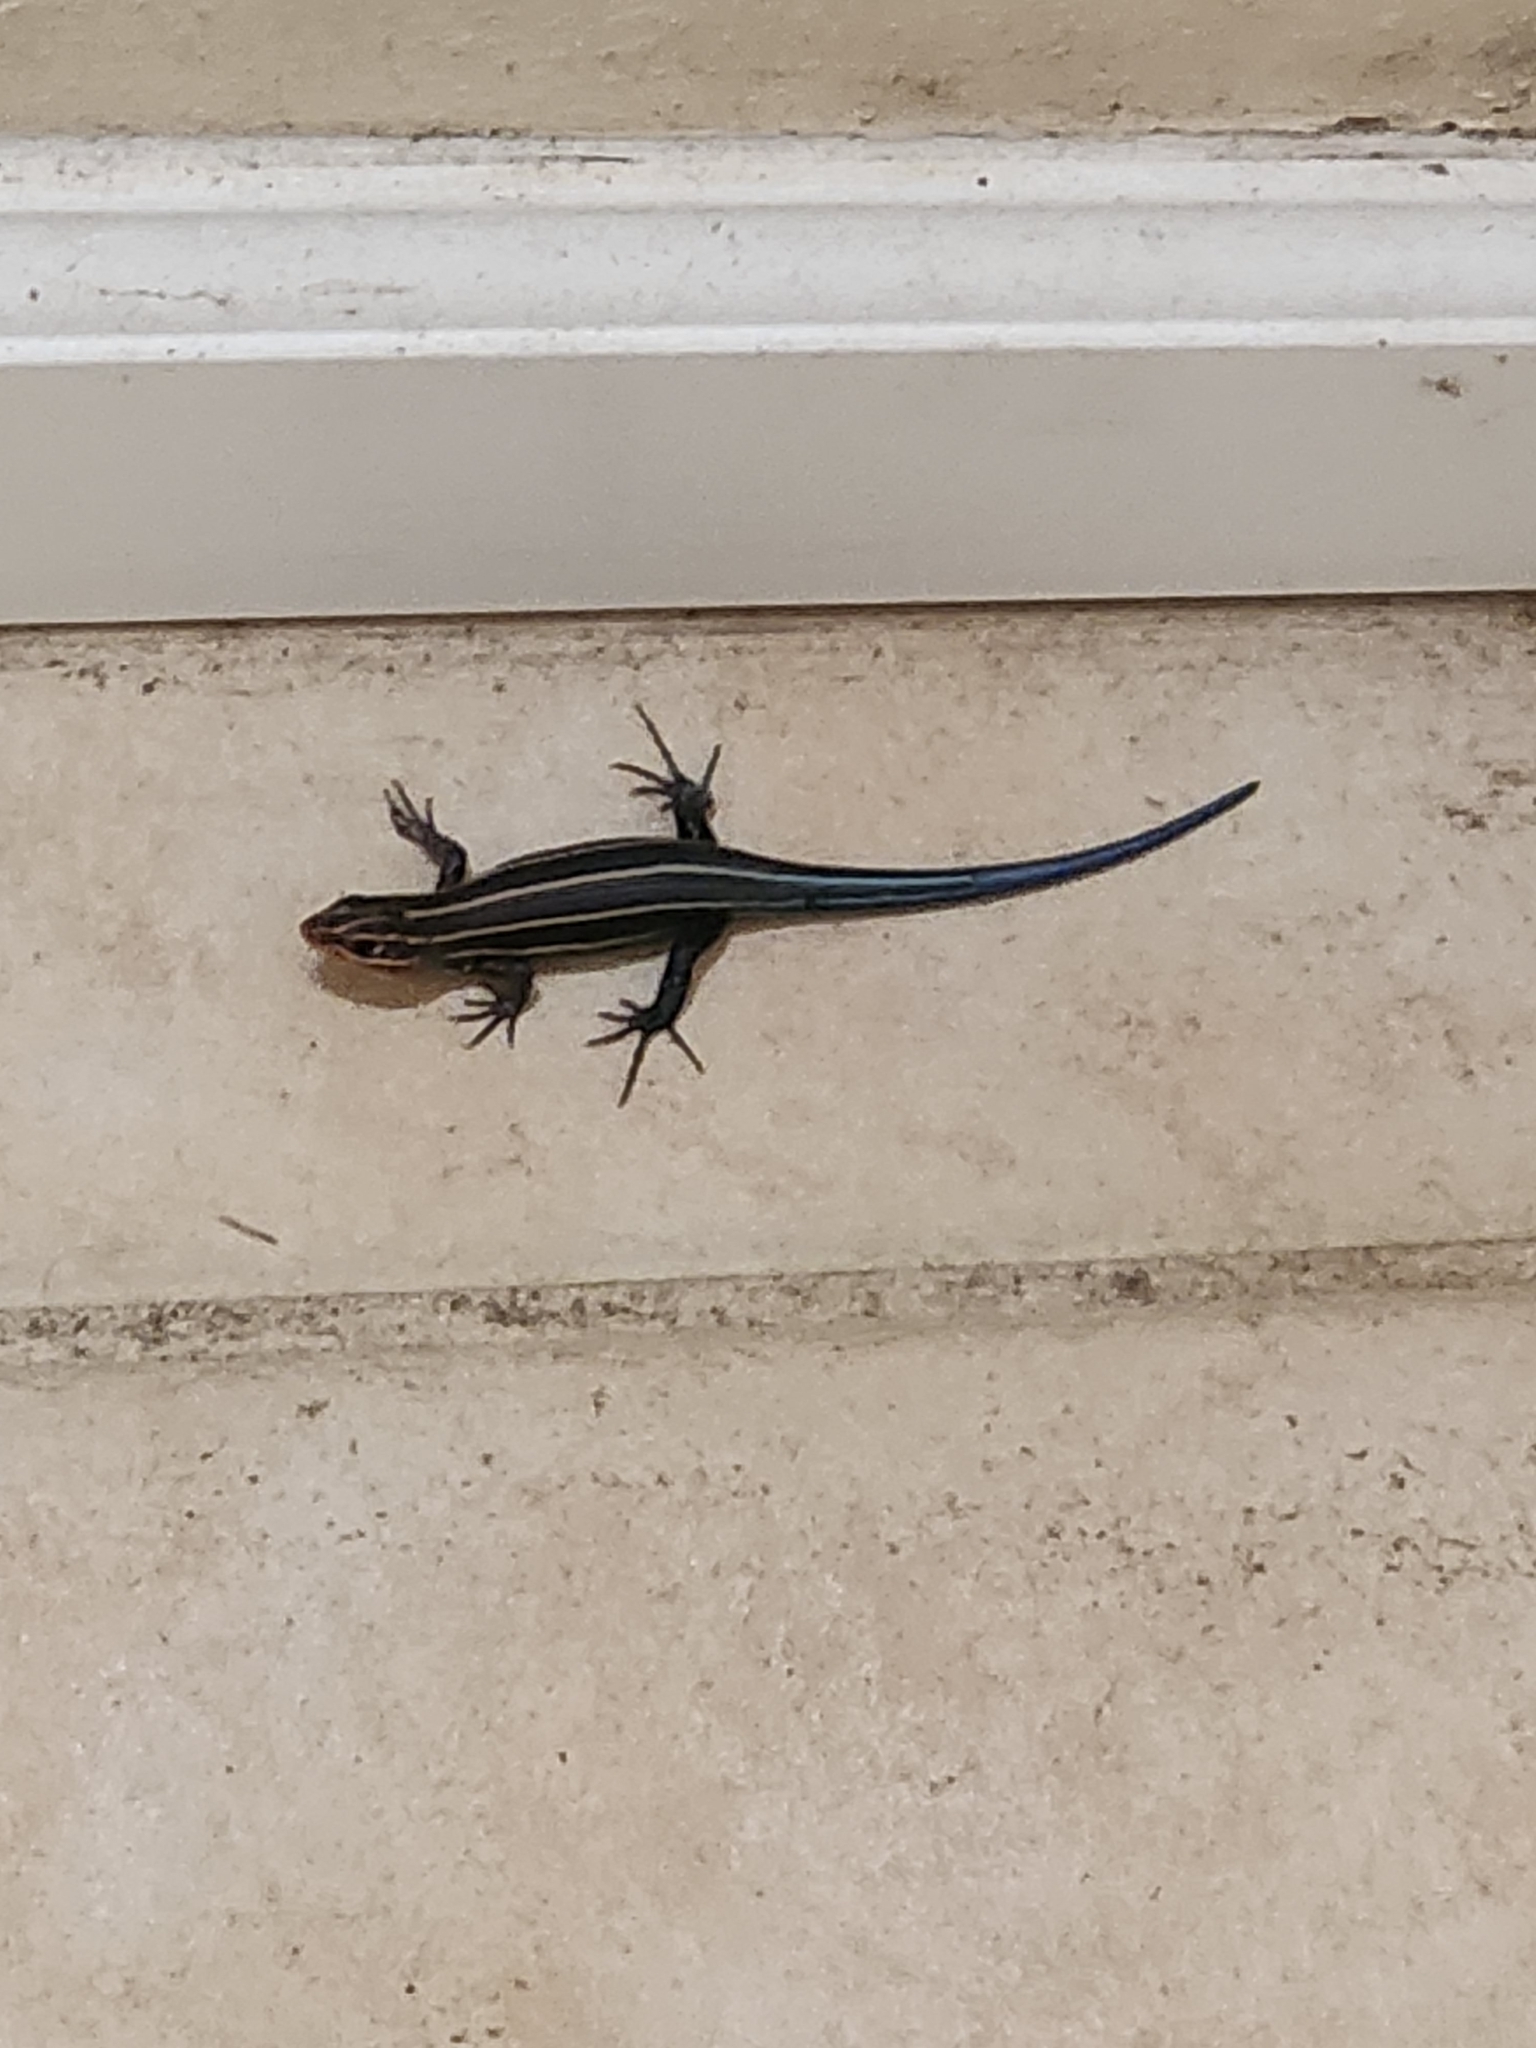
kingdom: Animalia
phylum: Chordata
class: Squamata
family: Scincidae
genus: Plestiodon
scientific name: Plestiodon
